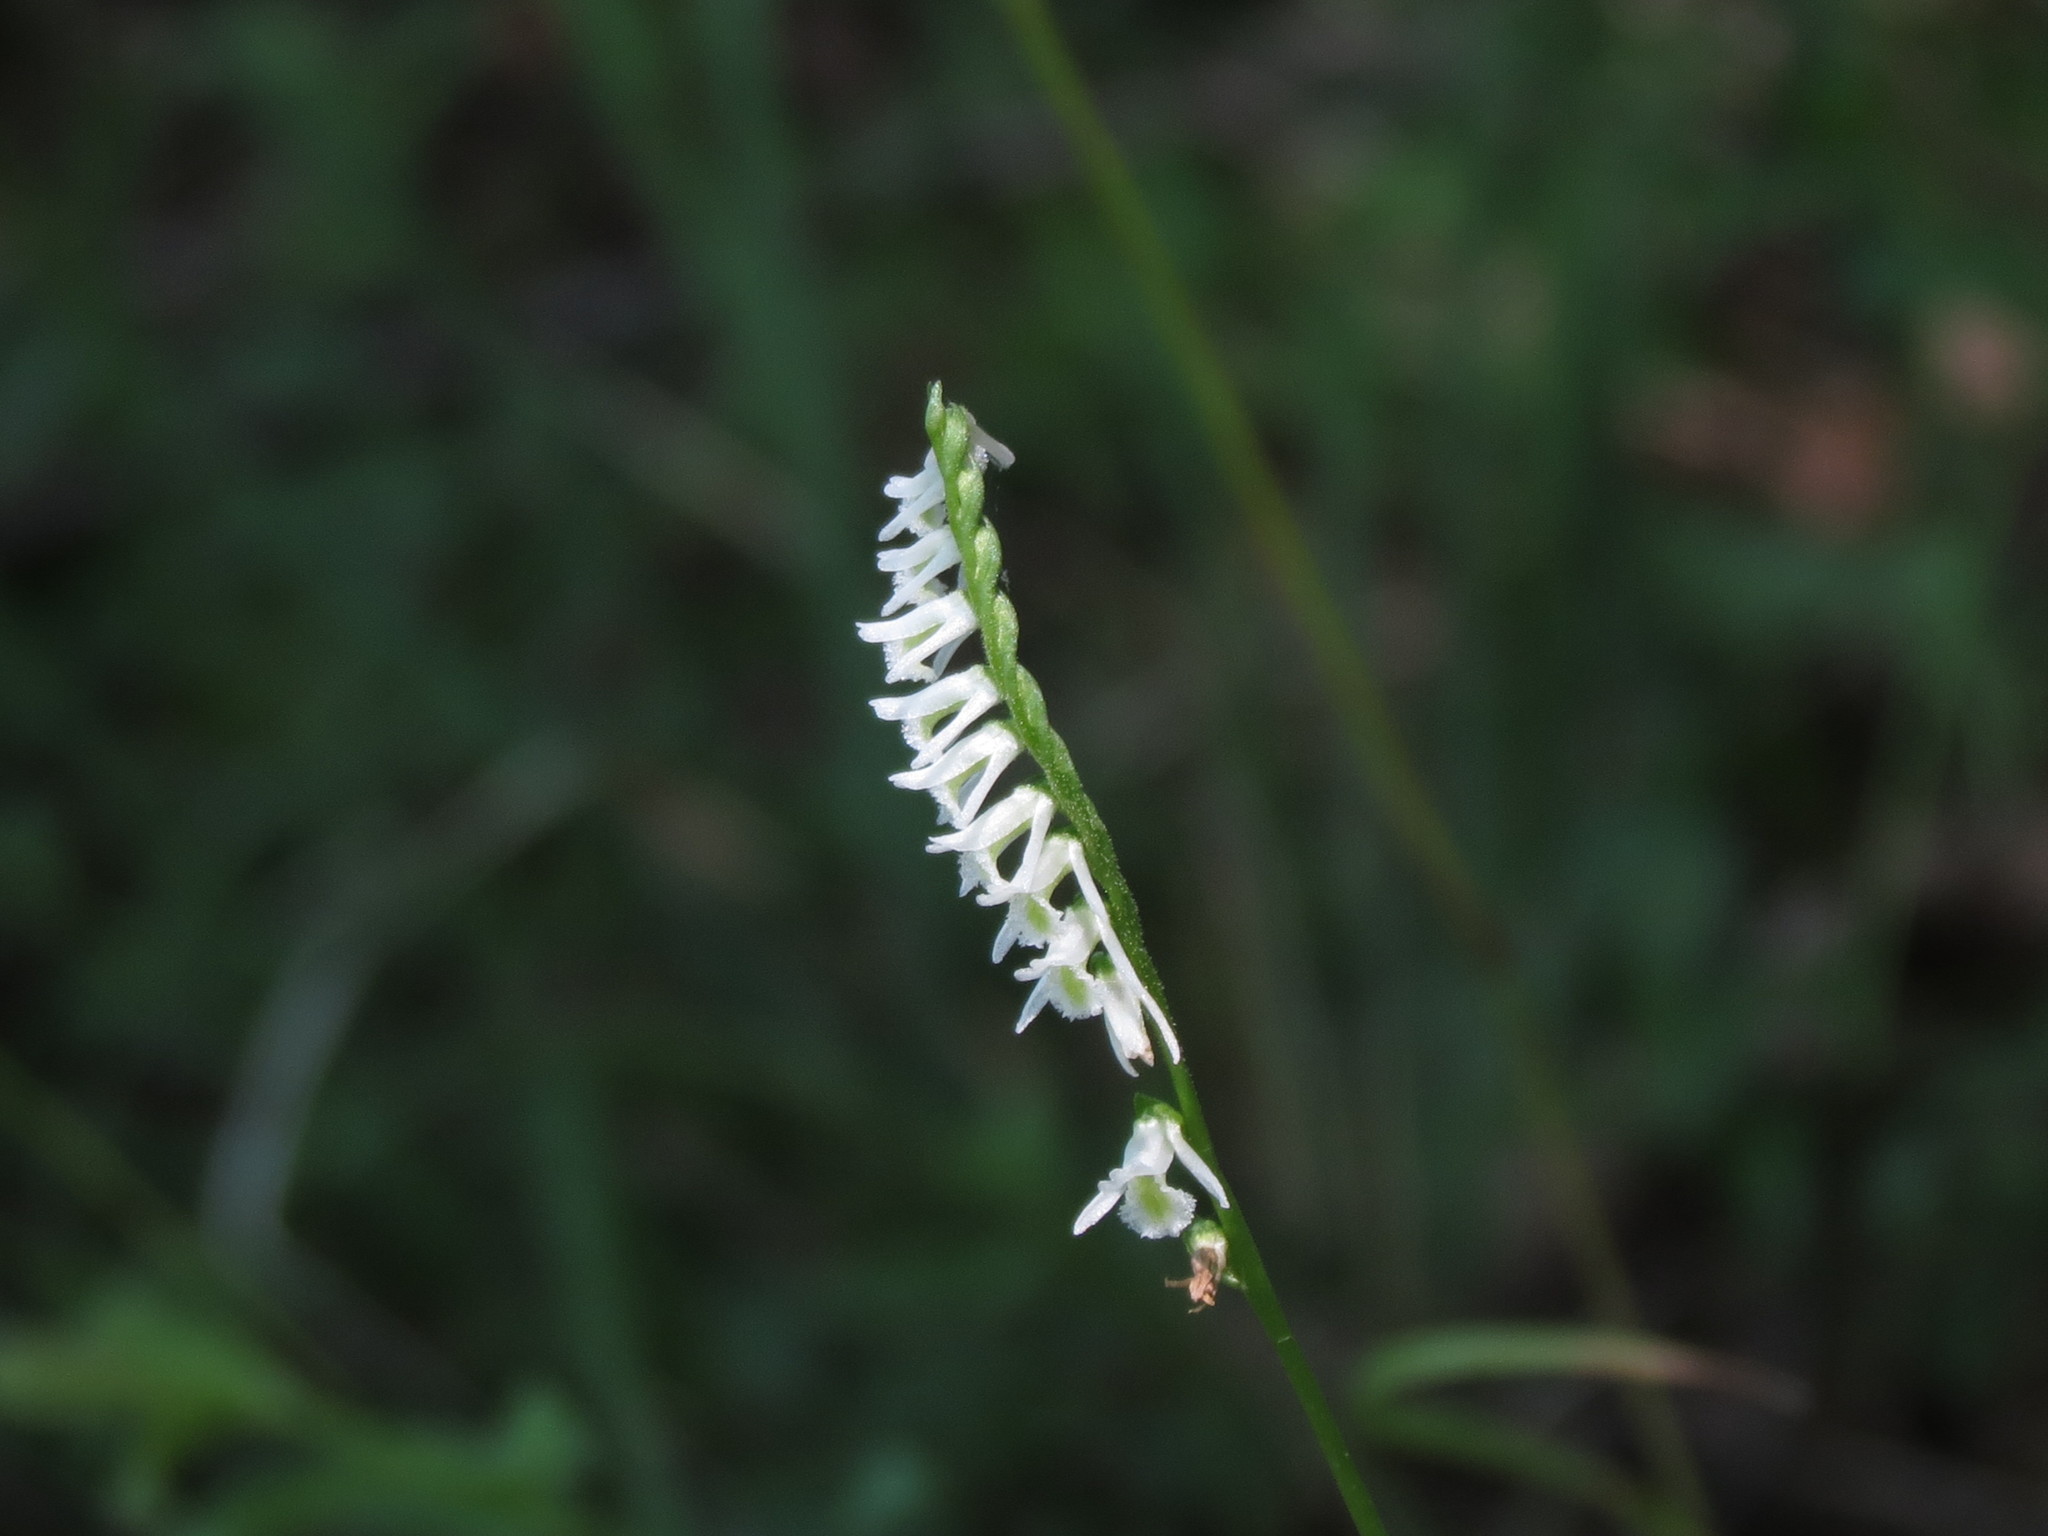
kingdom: Plantae
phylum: Tracheophyta
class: Liliopsida
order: Asparagales
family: Orchidaceae
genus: Spiranthes
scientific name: Spiranthes lacera
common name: Northern slender ladies'-tresses
